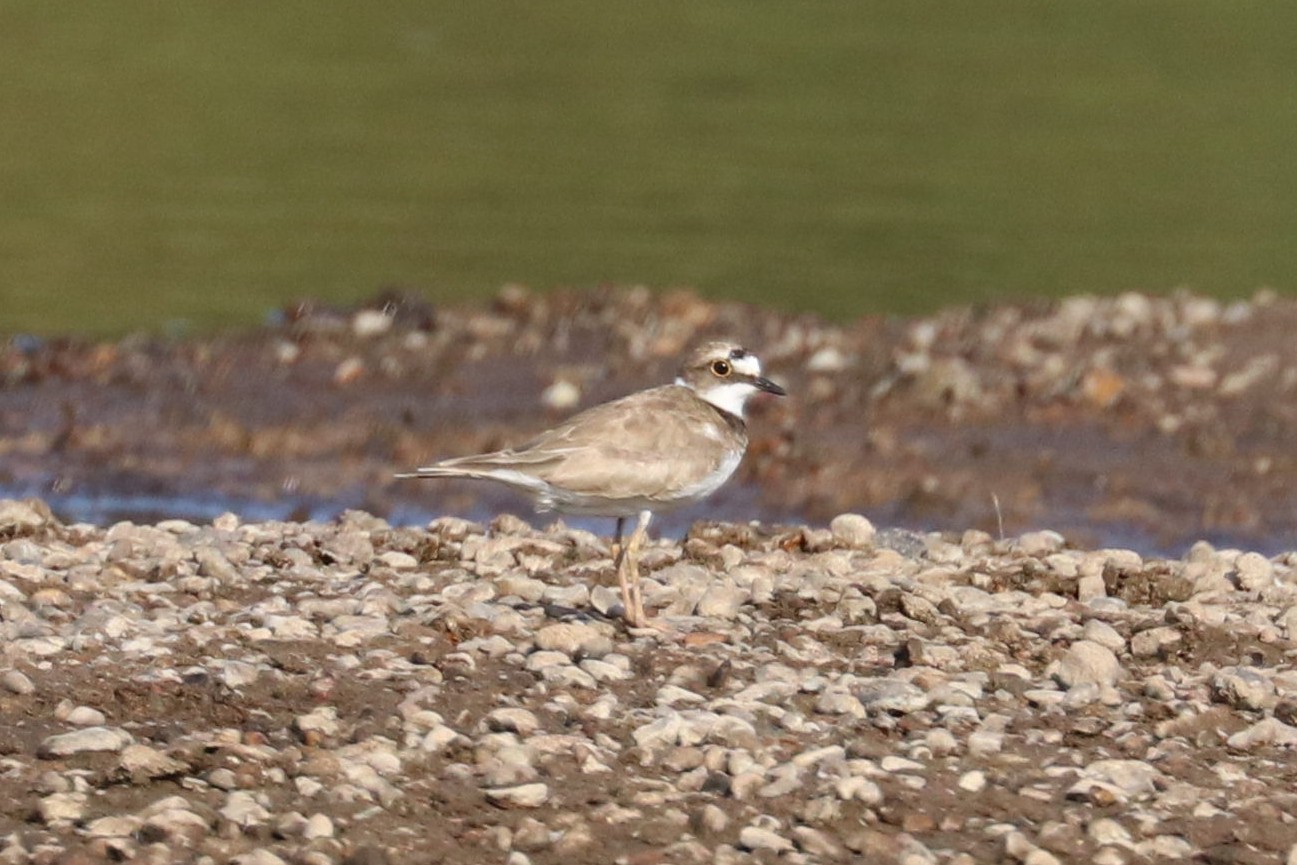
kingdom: Animalia
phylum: Chordata
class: Aves
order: Charadriiformes
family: Charadriidae
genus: Charadrius
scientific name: Charadrius dubius
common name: Little ringed plover
